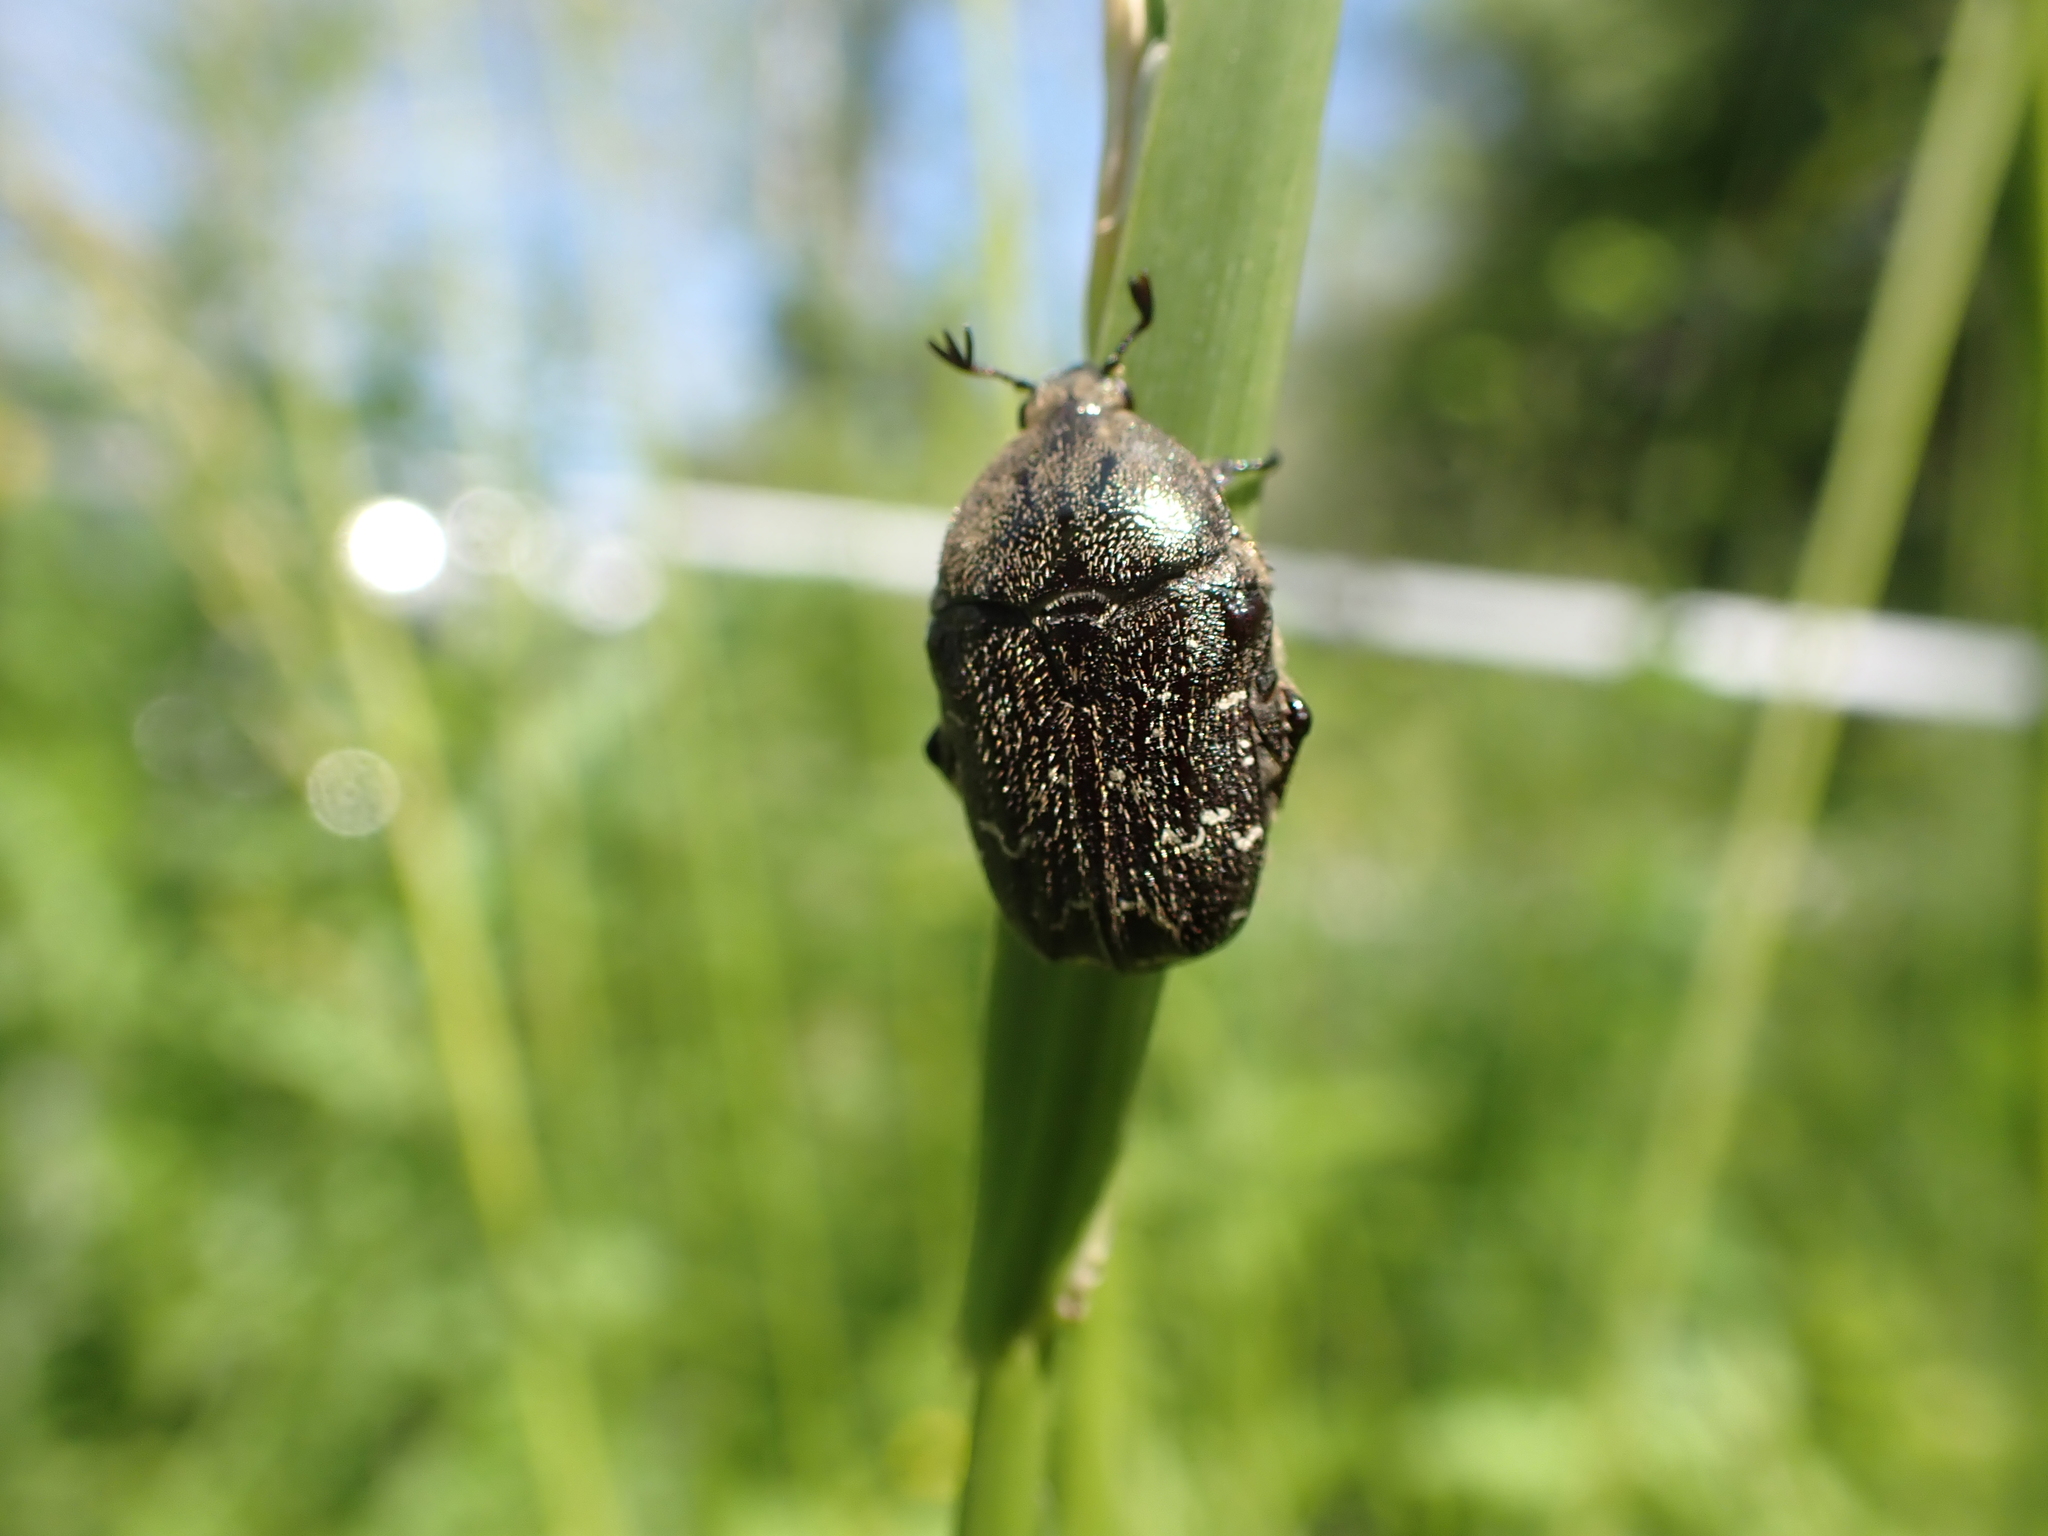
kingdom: Animalia
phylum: Arthropoda
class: Insecta
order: Coleoptera
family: Scarabaeidae
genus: Euphoria
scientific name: Euphoria sepulcralis
